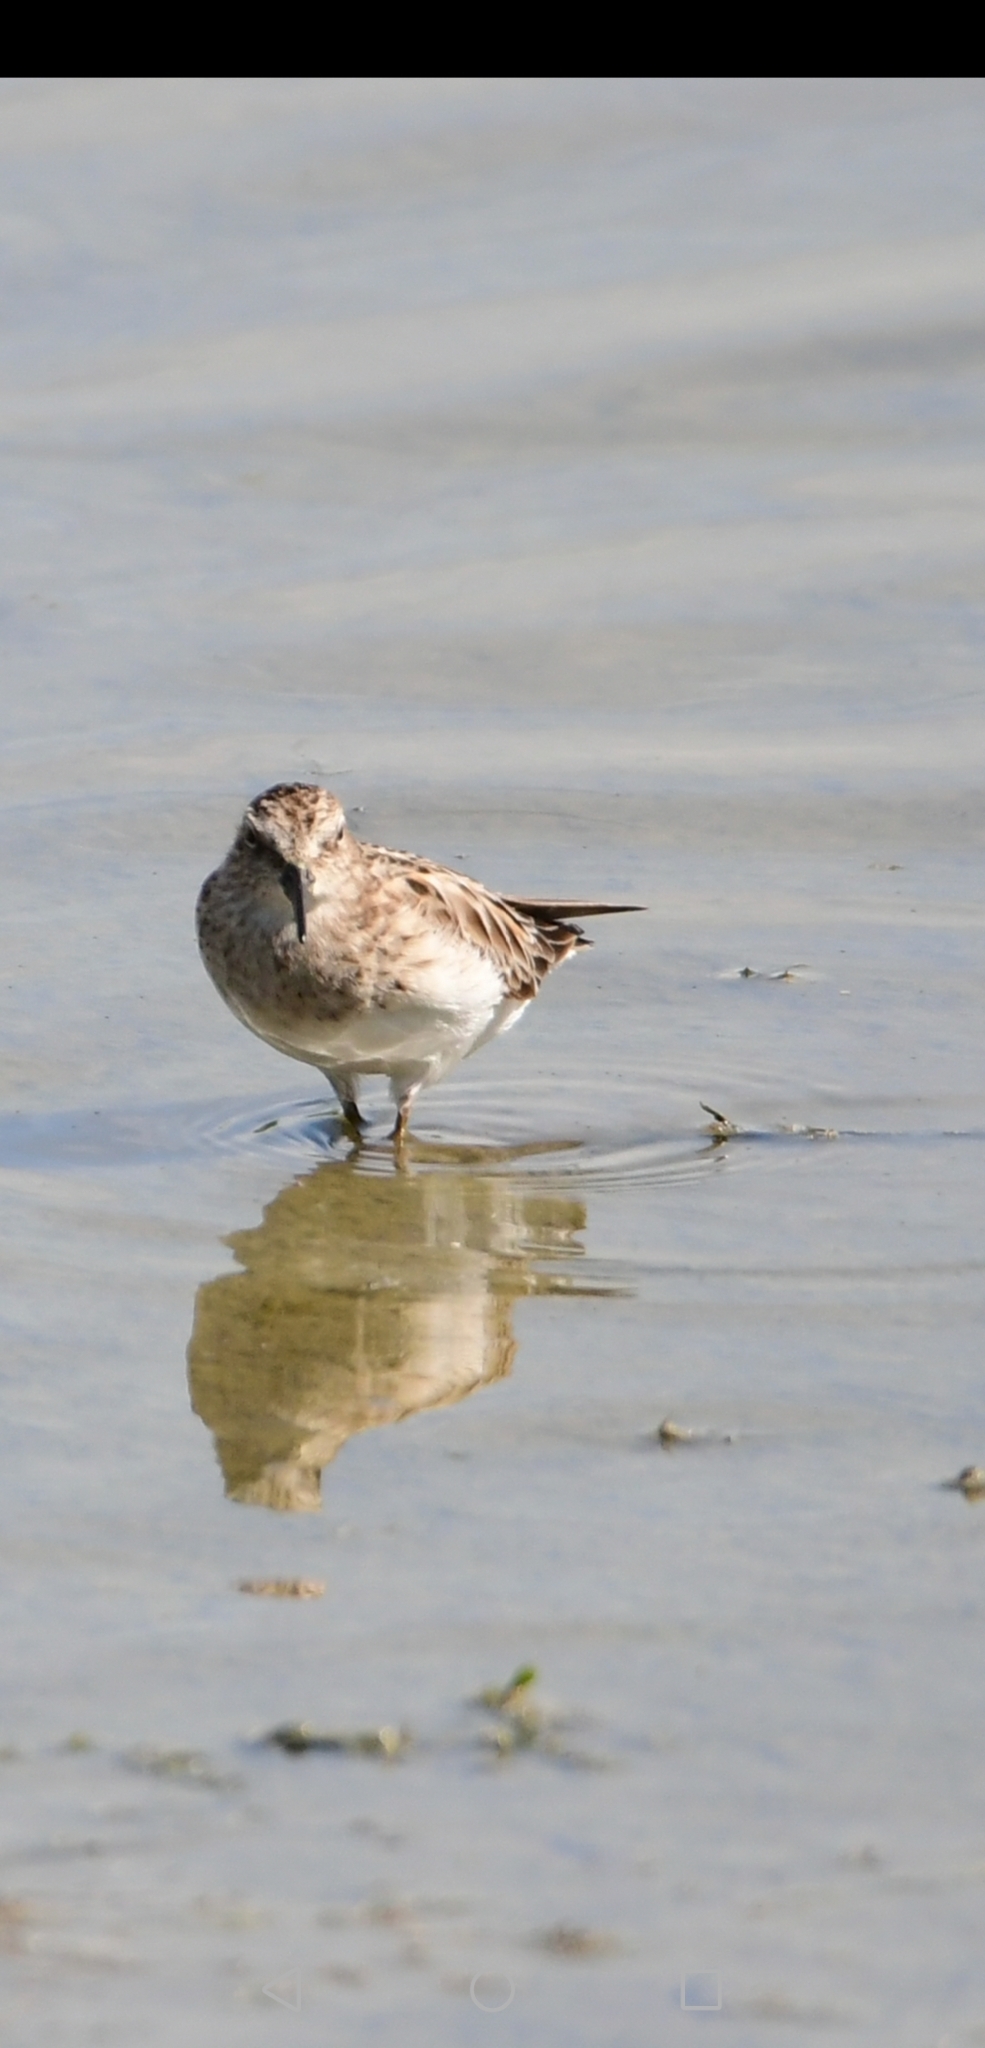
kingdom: Animalia
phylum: Chordata
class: Aves
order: Charadriiformes
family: Scolopacidae
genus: Calidris
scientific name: Calidris minutilla
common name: Least sandpiper
